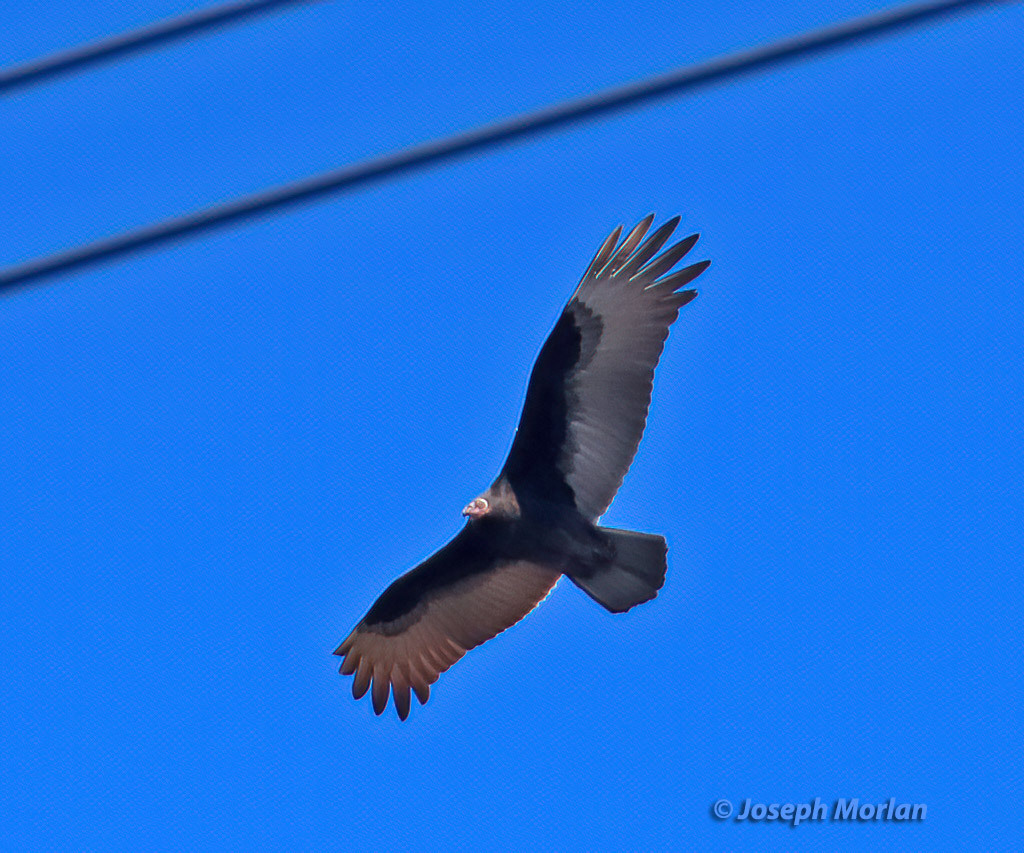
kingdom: Animalia
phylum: Chordata
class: Aves
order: Accipitriformes
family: Cathartidae
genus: Cathartes
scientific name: Cathartes aura
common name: Turkey vulture
